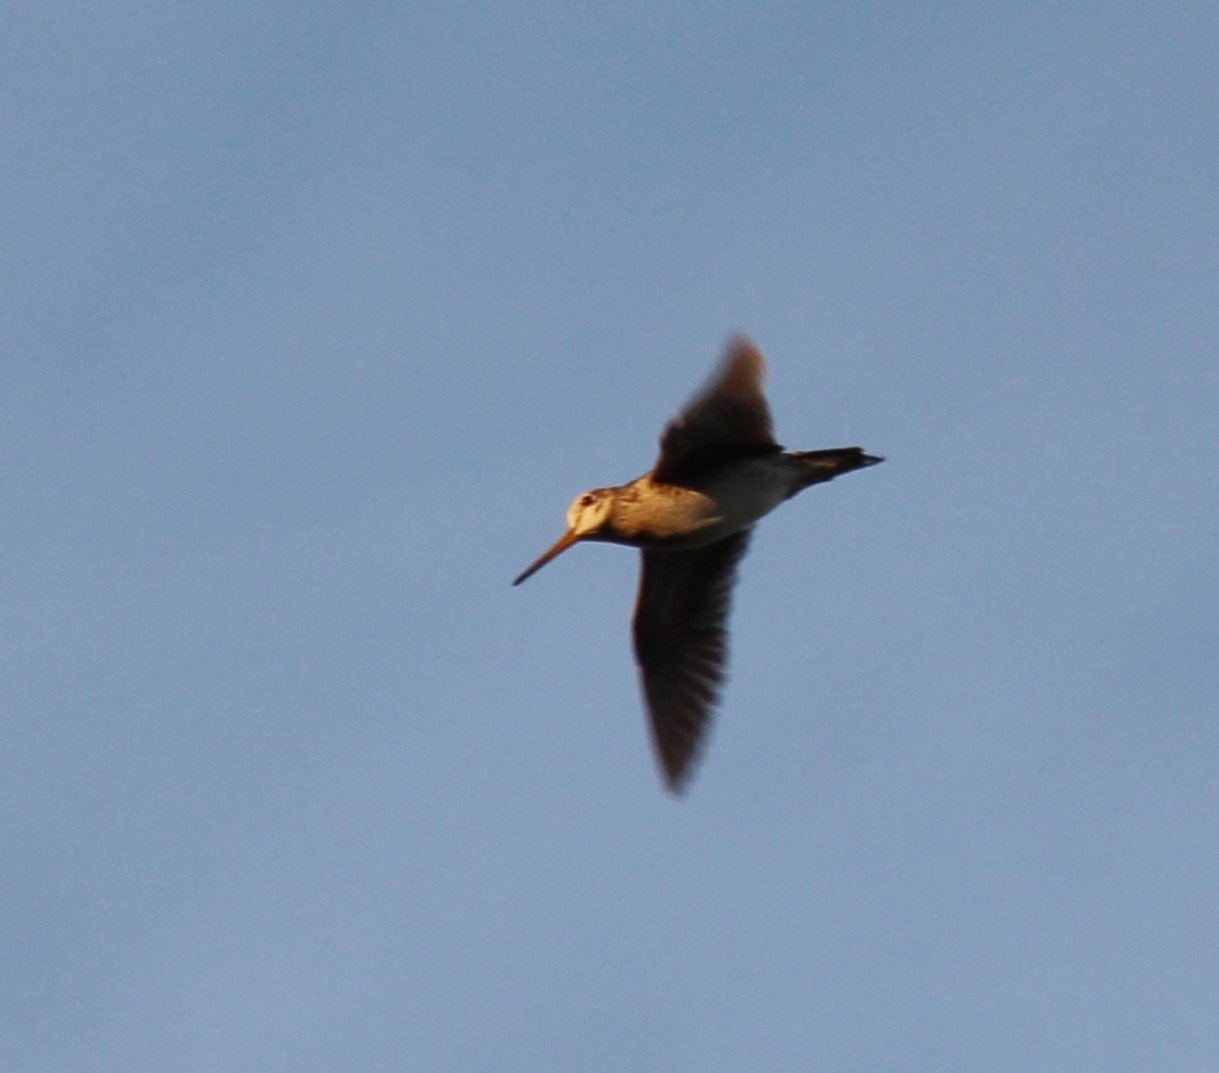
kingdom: Animalia
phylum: Chordata
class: Aves
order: Charadriiformes
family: Scolopacidae
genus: Gallinago
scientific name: Gallinago megala
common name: Swinhoe's snipe
